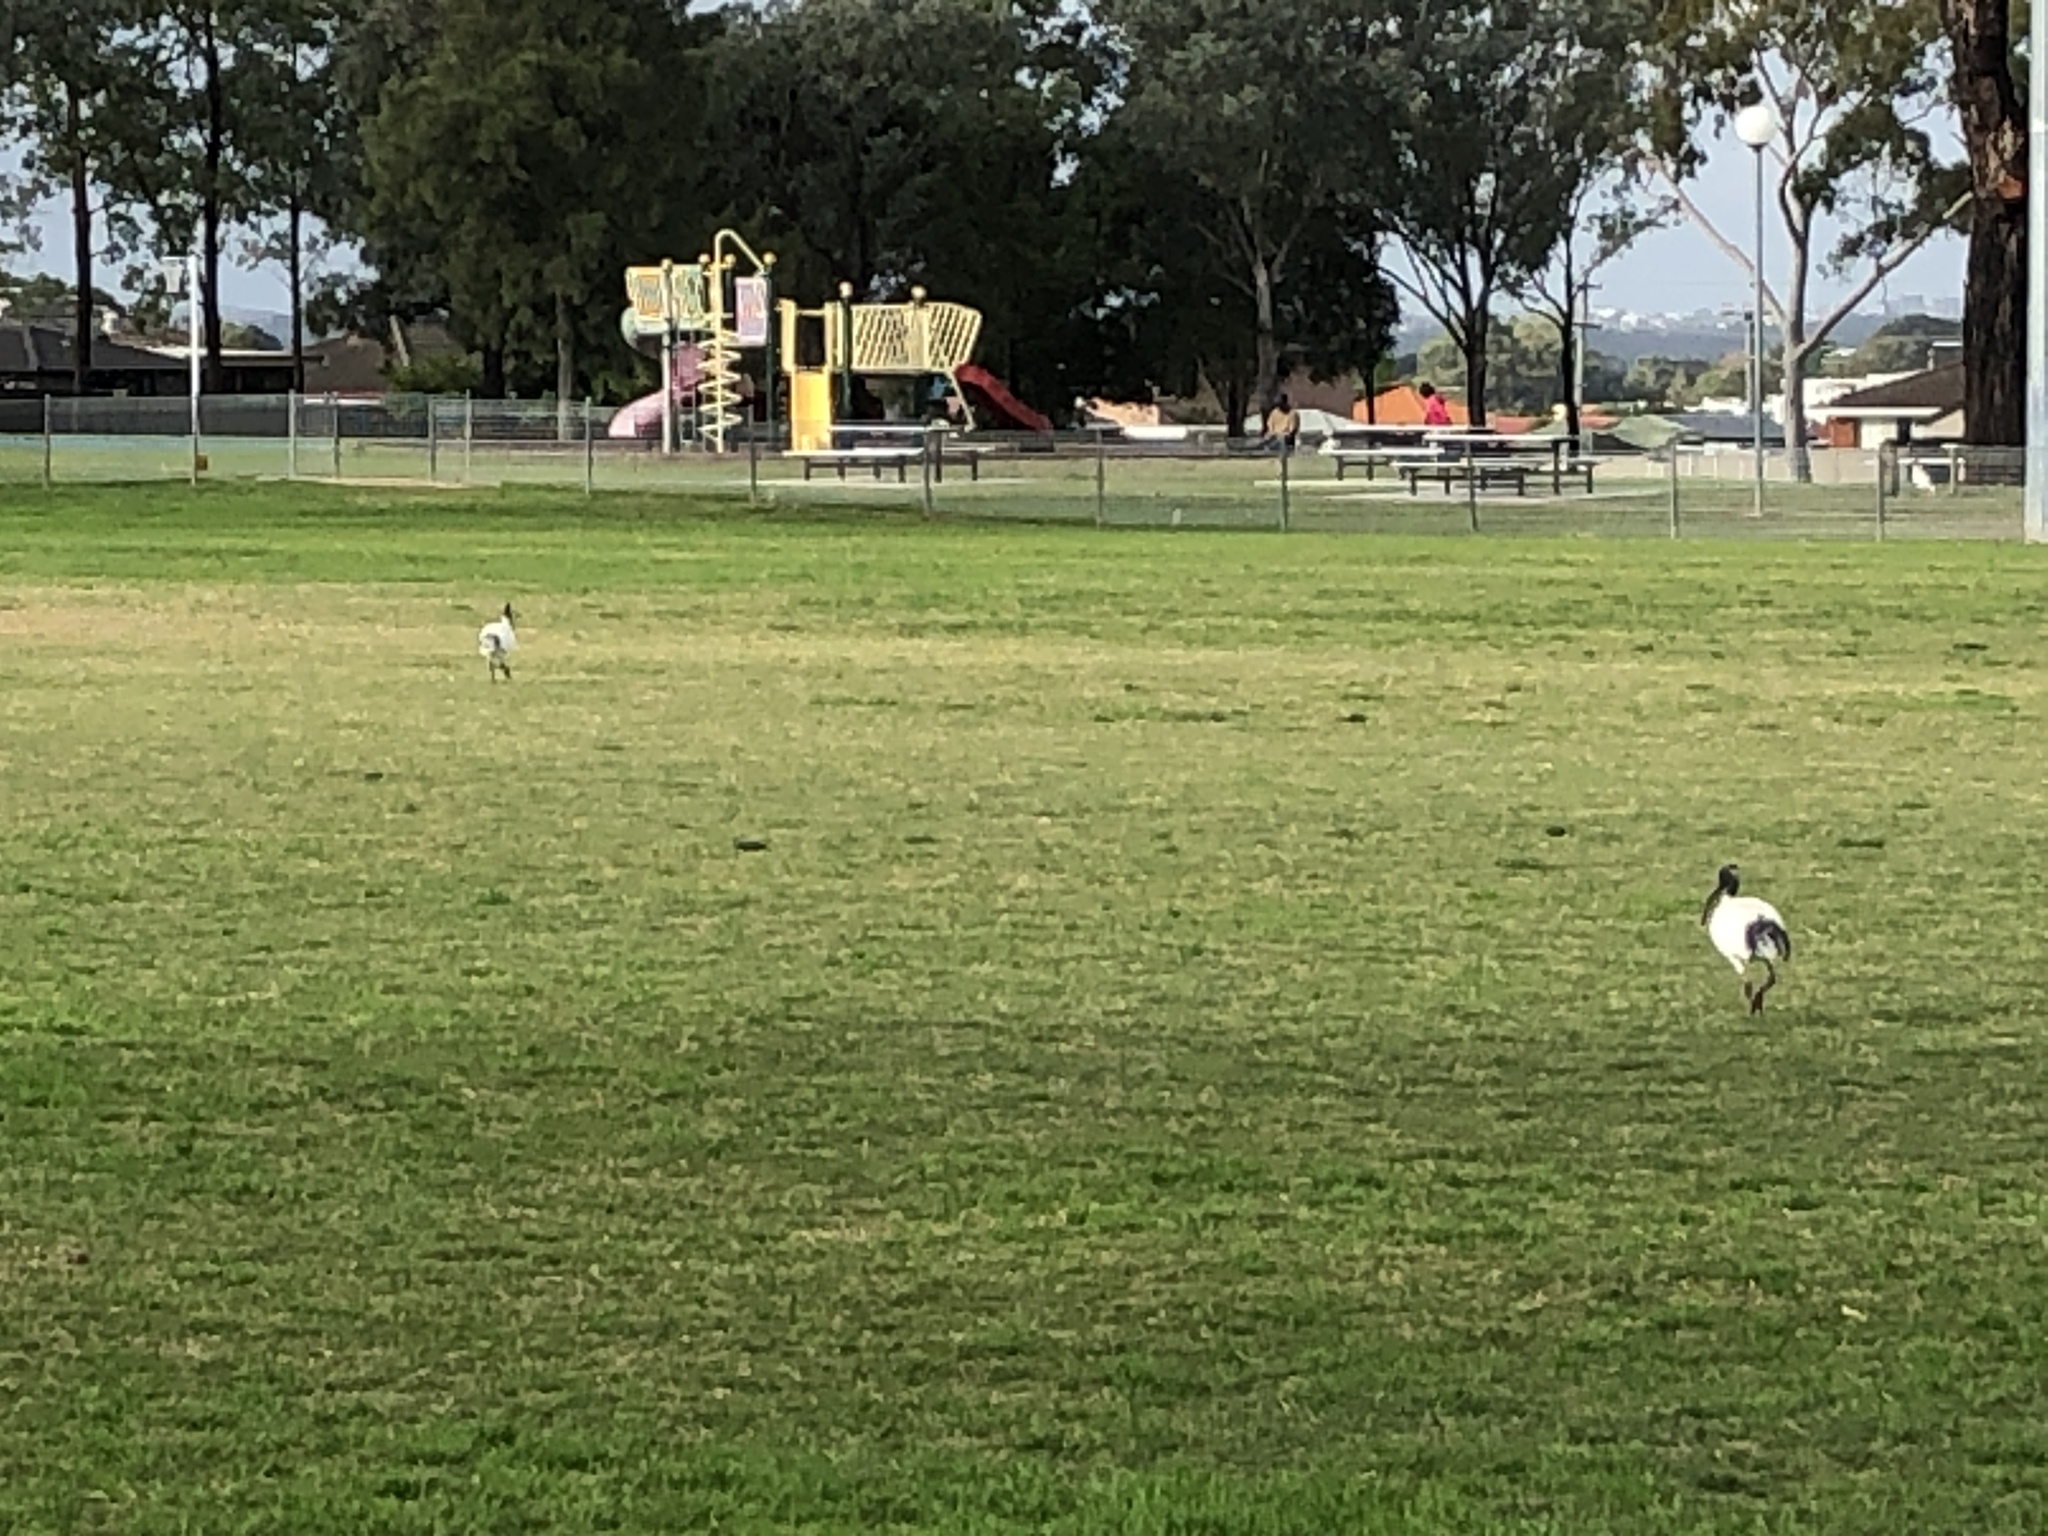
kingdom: Animalia
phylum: Chordata
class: Aves
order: Pelecaniformes
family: Threskiornithidae
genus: Threskiornis
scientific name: Threskiornis molucca
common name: Australian white ibis
